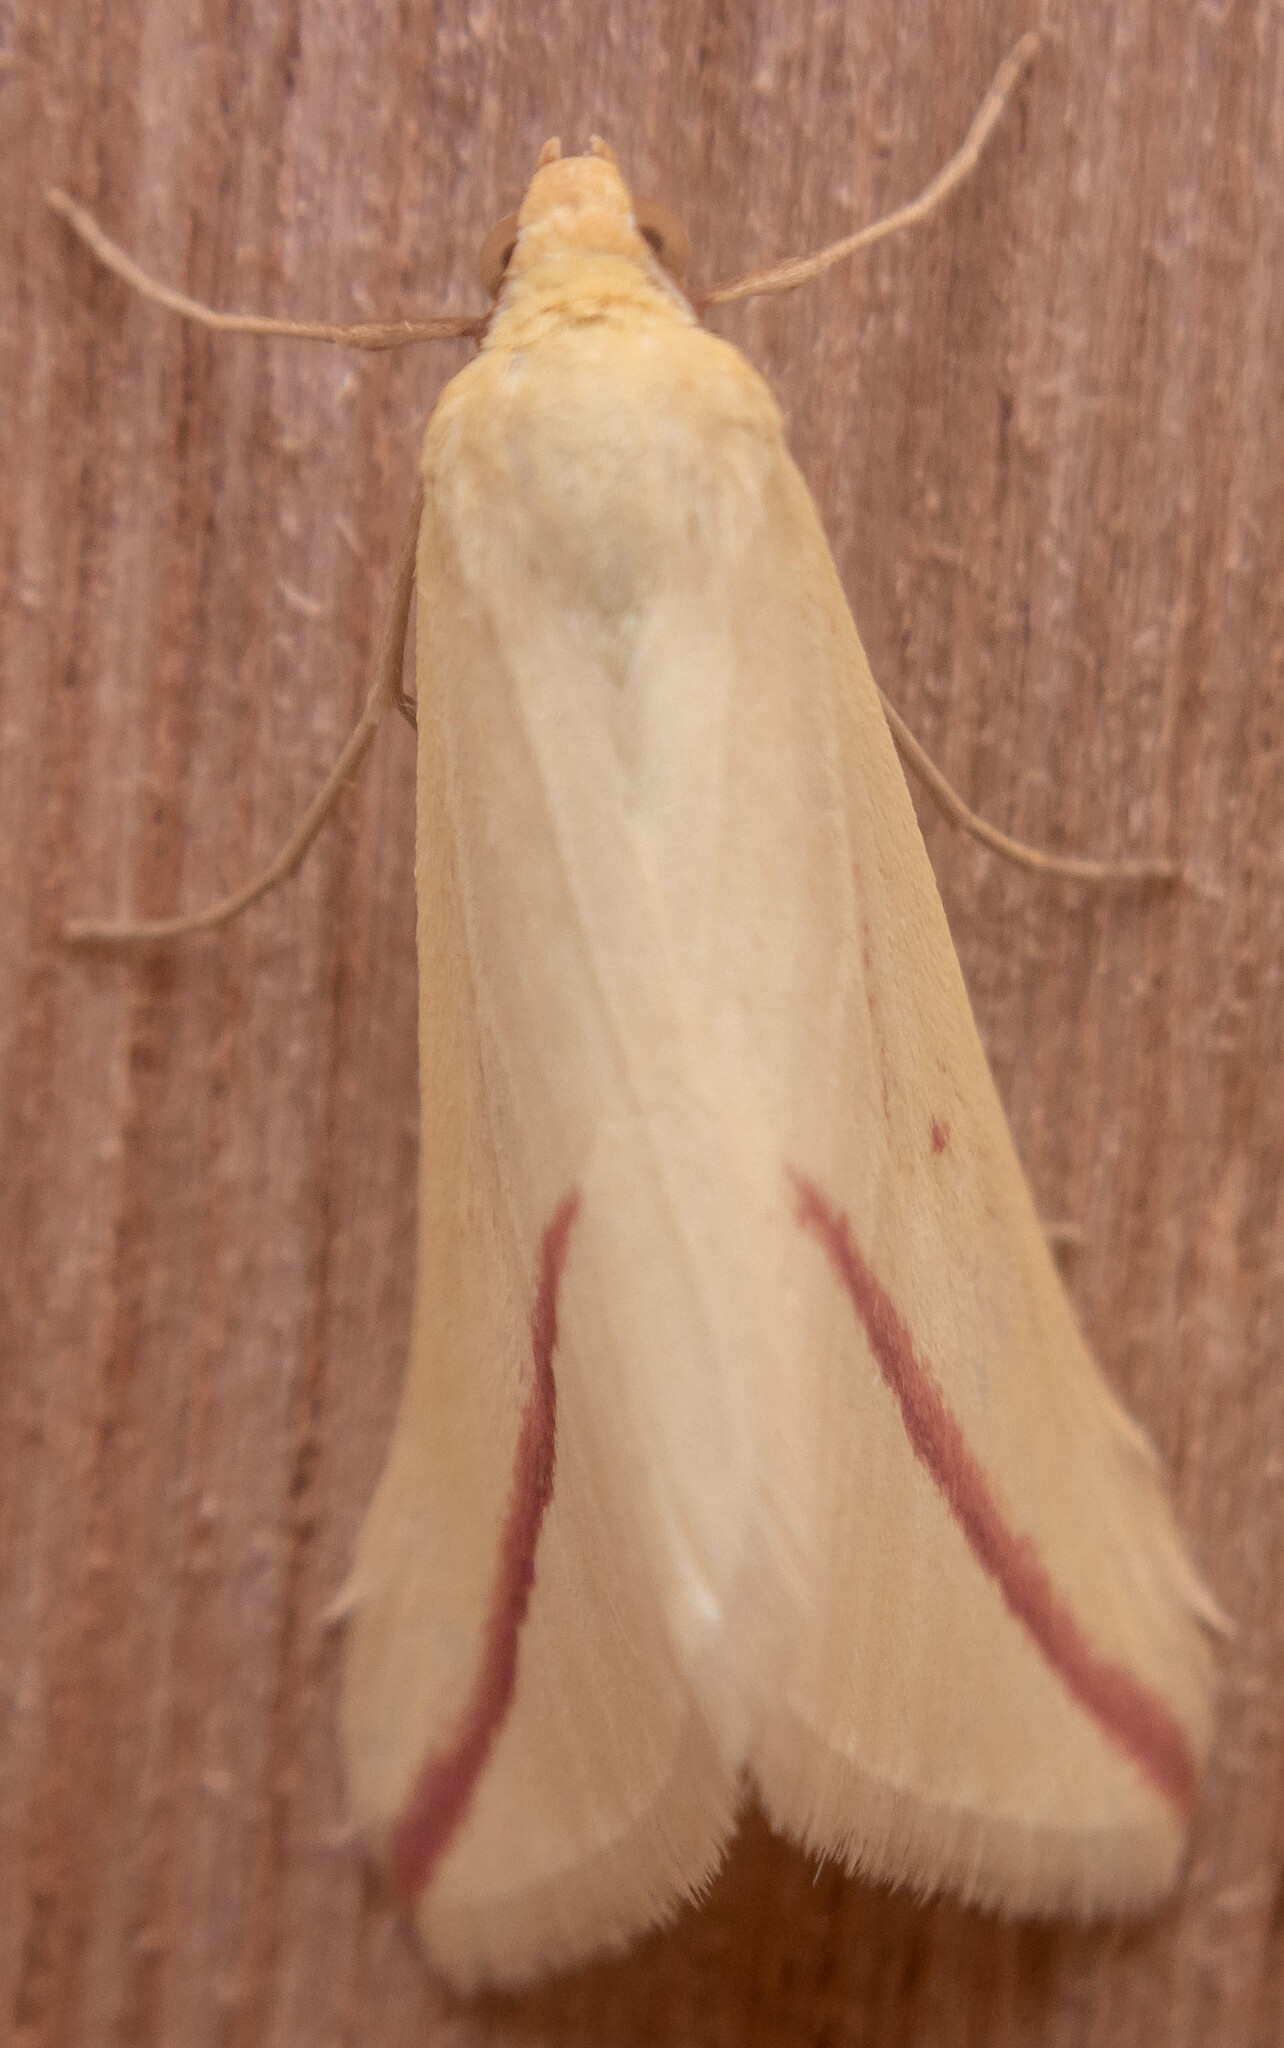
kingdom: Animalia
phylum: Arthropoda
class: Insecta
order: Lepidoptera
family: Geometridae
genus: Rhodometra
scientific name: Rhodometra sacraria
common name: Vestal
